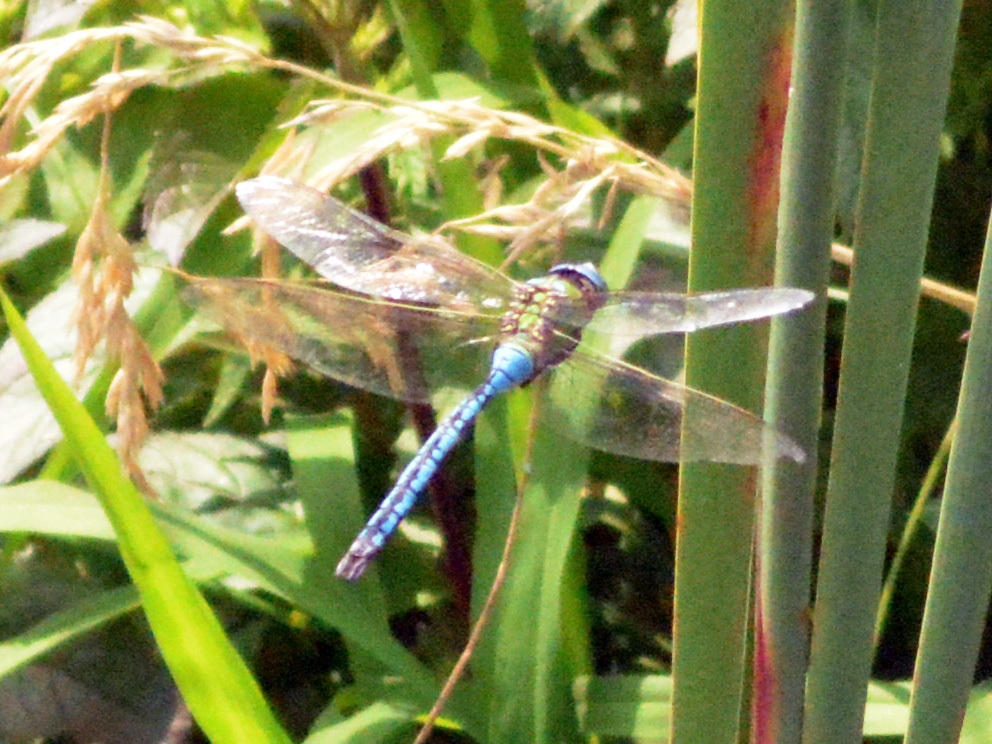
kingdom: Animalia
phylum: Arthropoda
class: Insecta
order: Odonata
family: Aeshnidae
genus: Anax
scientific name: Anax imperator
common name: Emperor dragonfly
